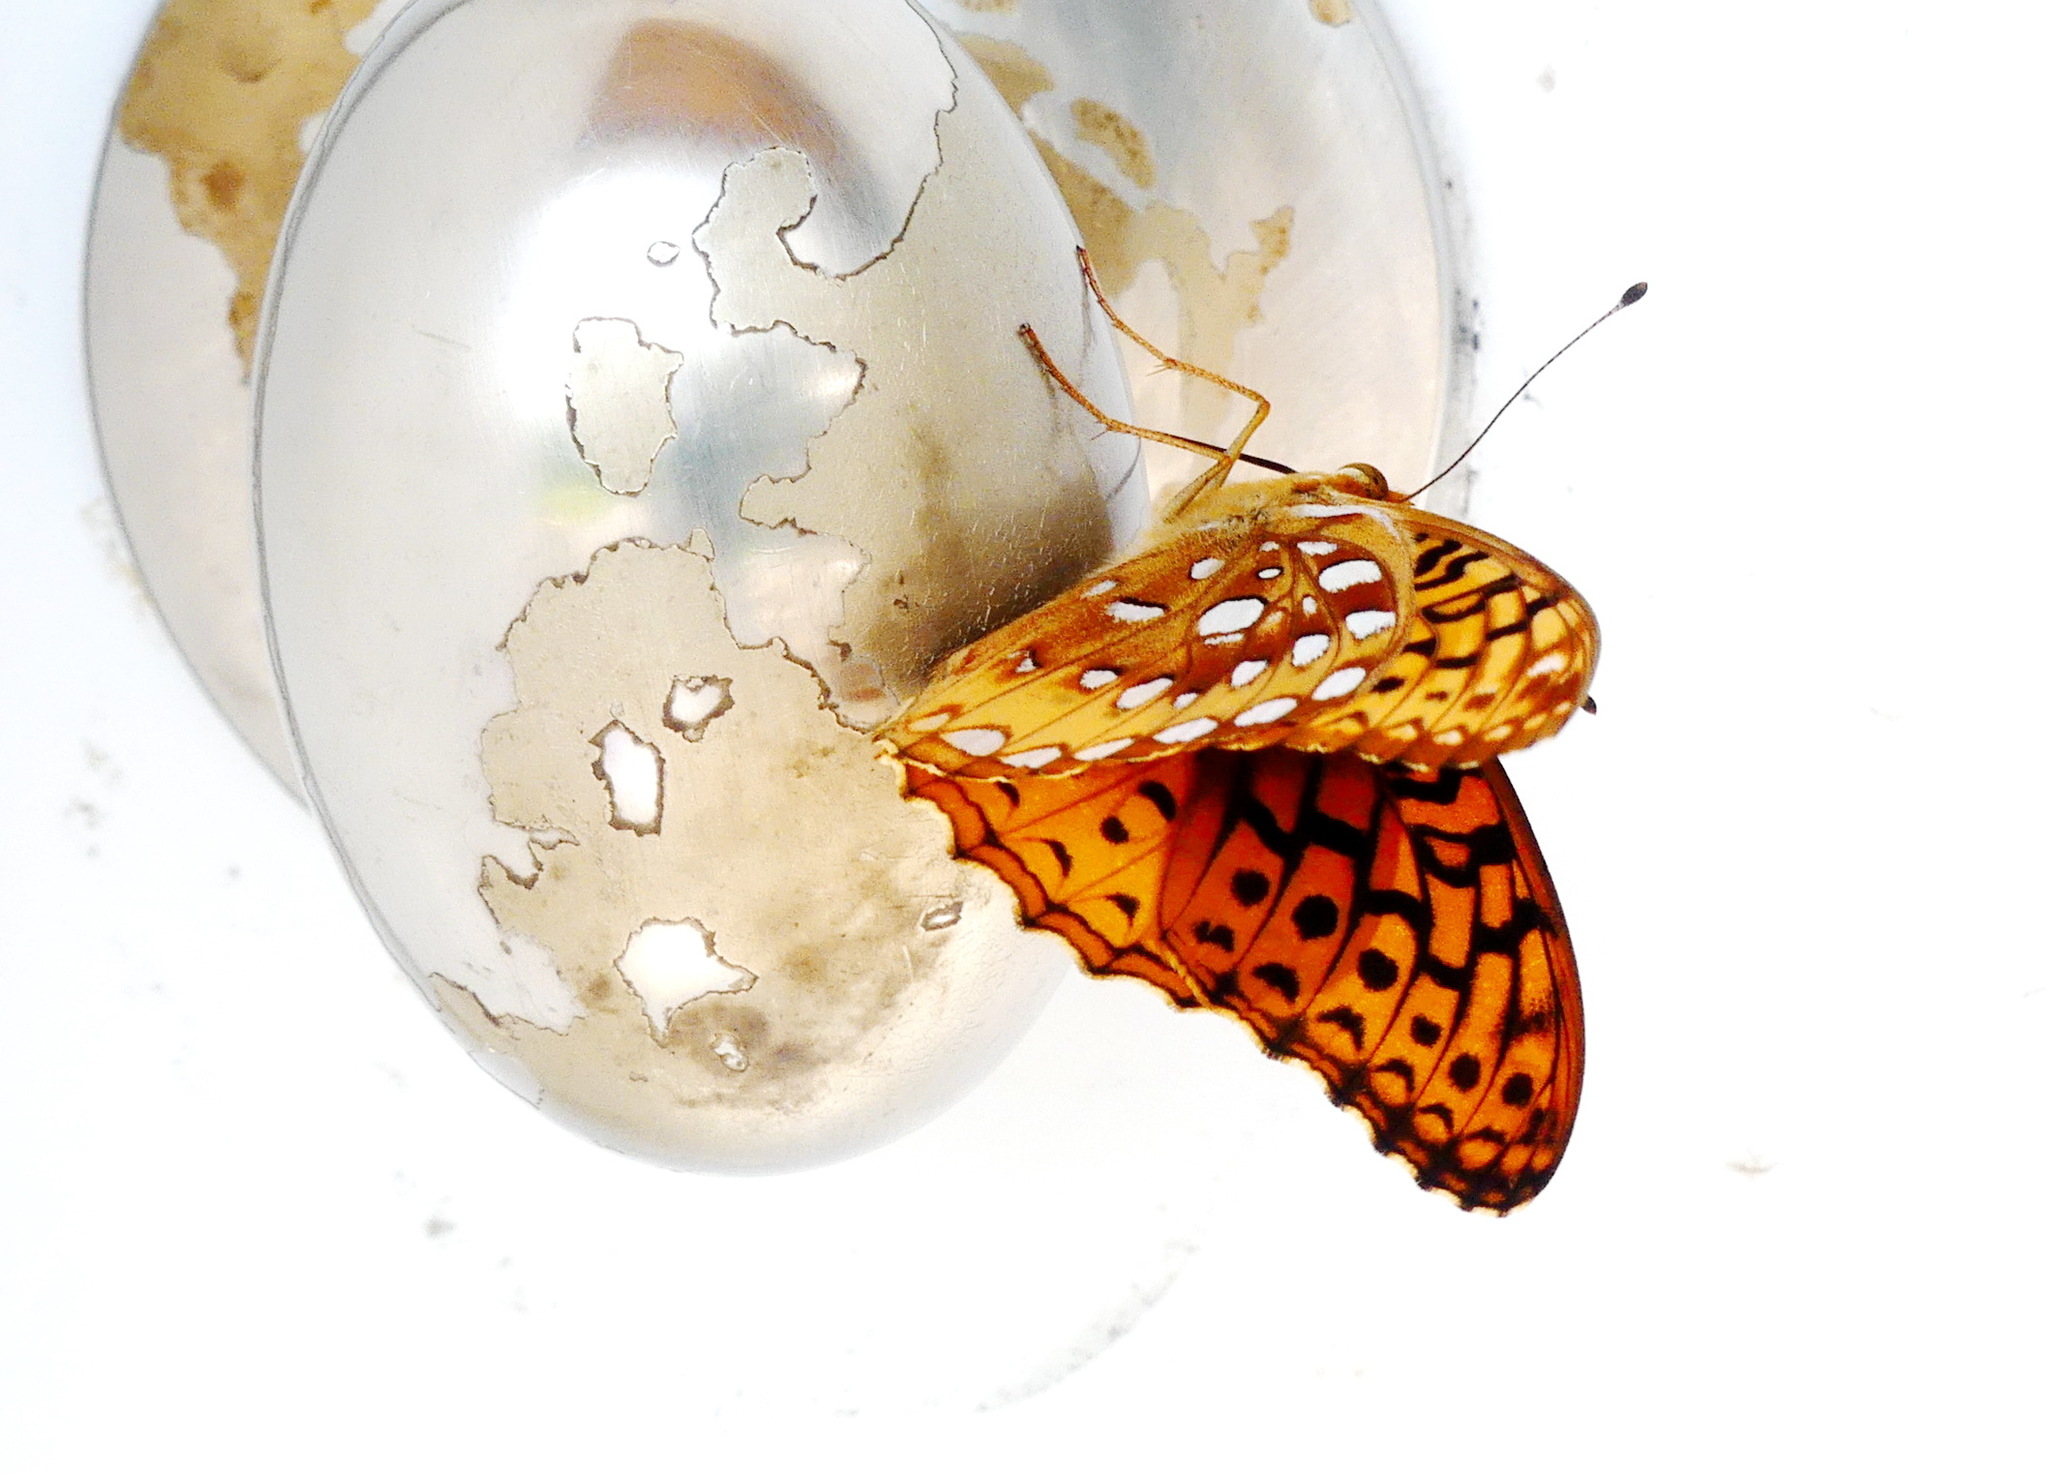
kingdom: Animalia
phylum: Arthropoda
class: Insecta
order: Lepidoptera
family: Nymphalidae
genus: Speyeria
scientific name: Speyeria cybele
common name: Great spangled fritillary
